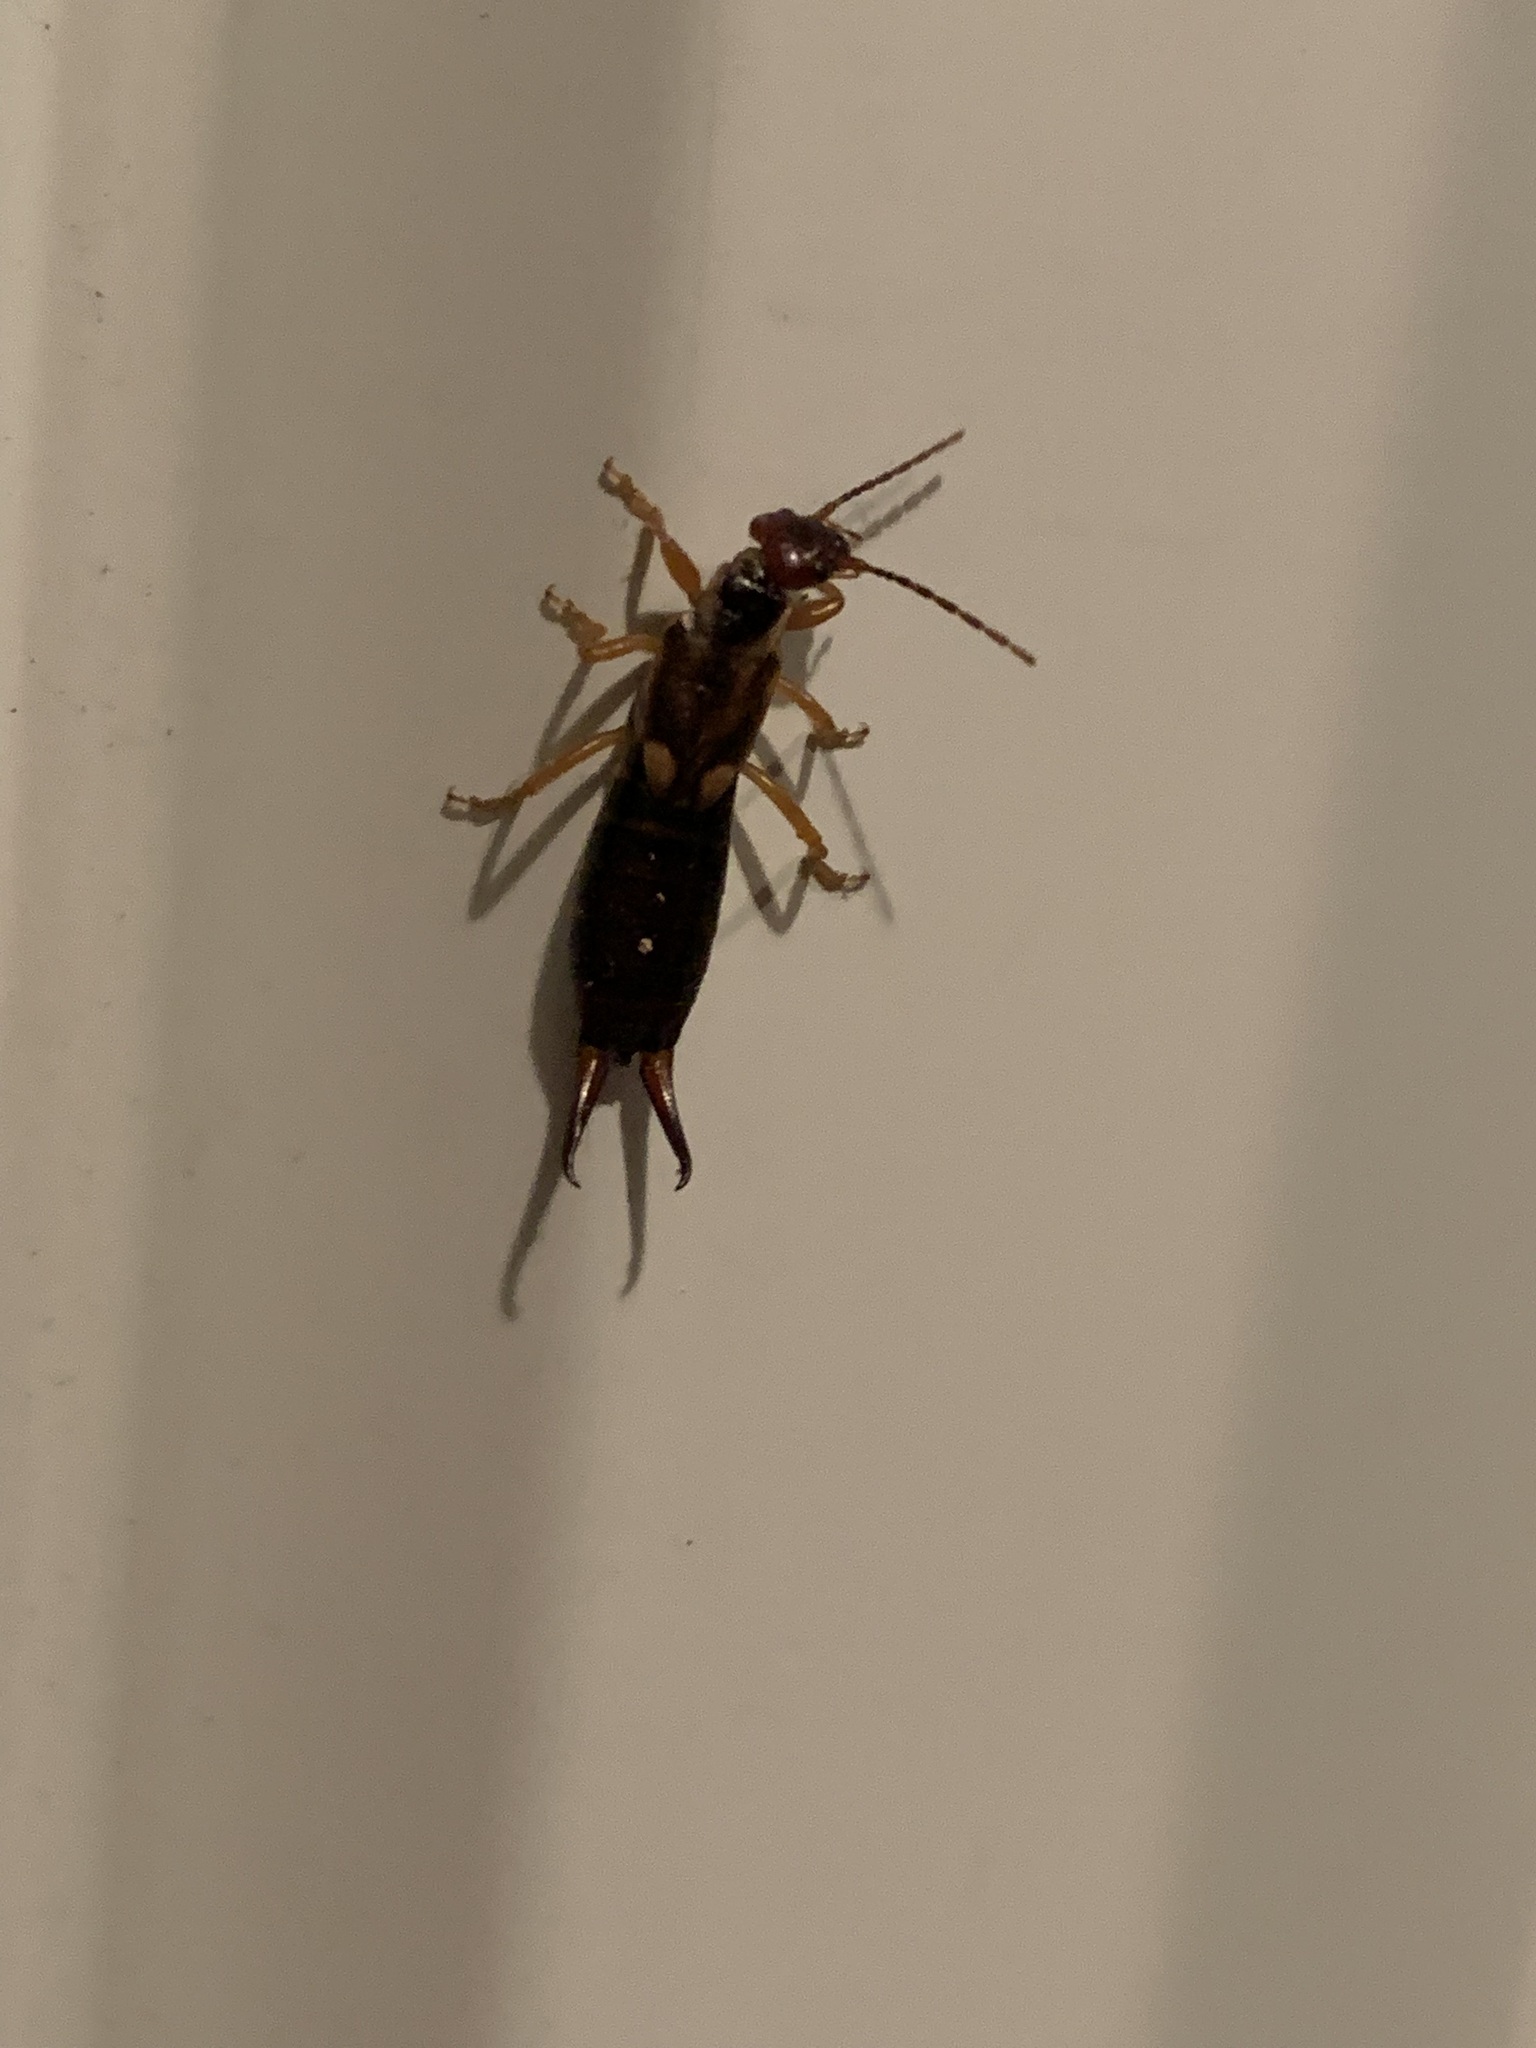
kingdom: Animalia
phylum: Arthropoda
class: Insecta
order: Dermaptera
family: Forficulidae
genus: Forficula
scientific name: Forficula
